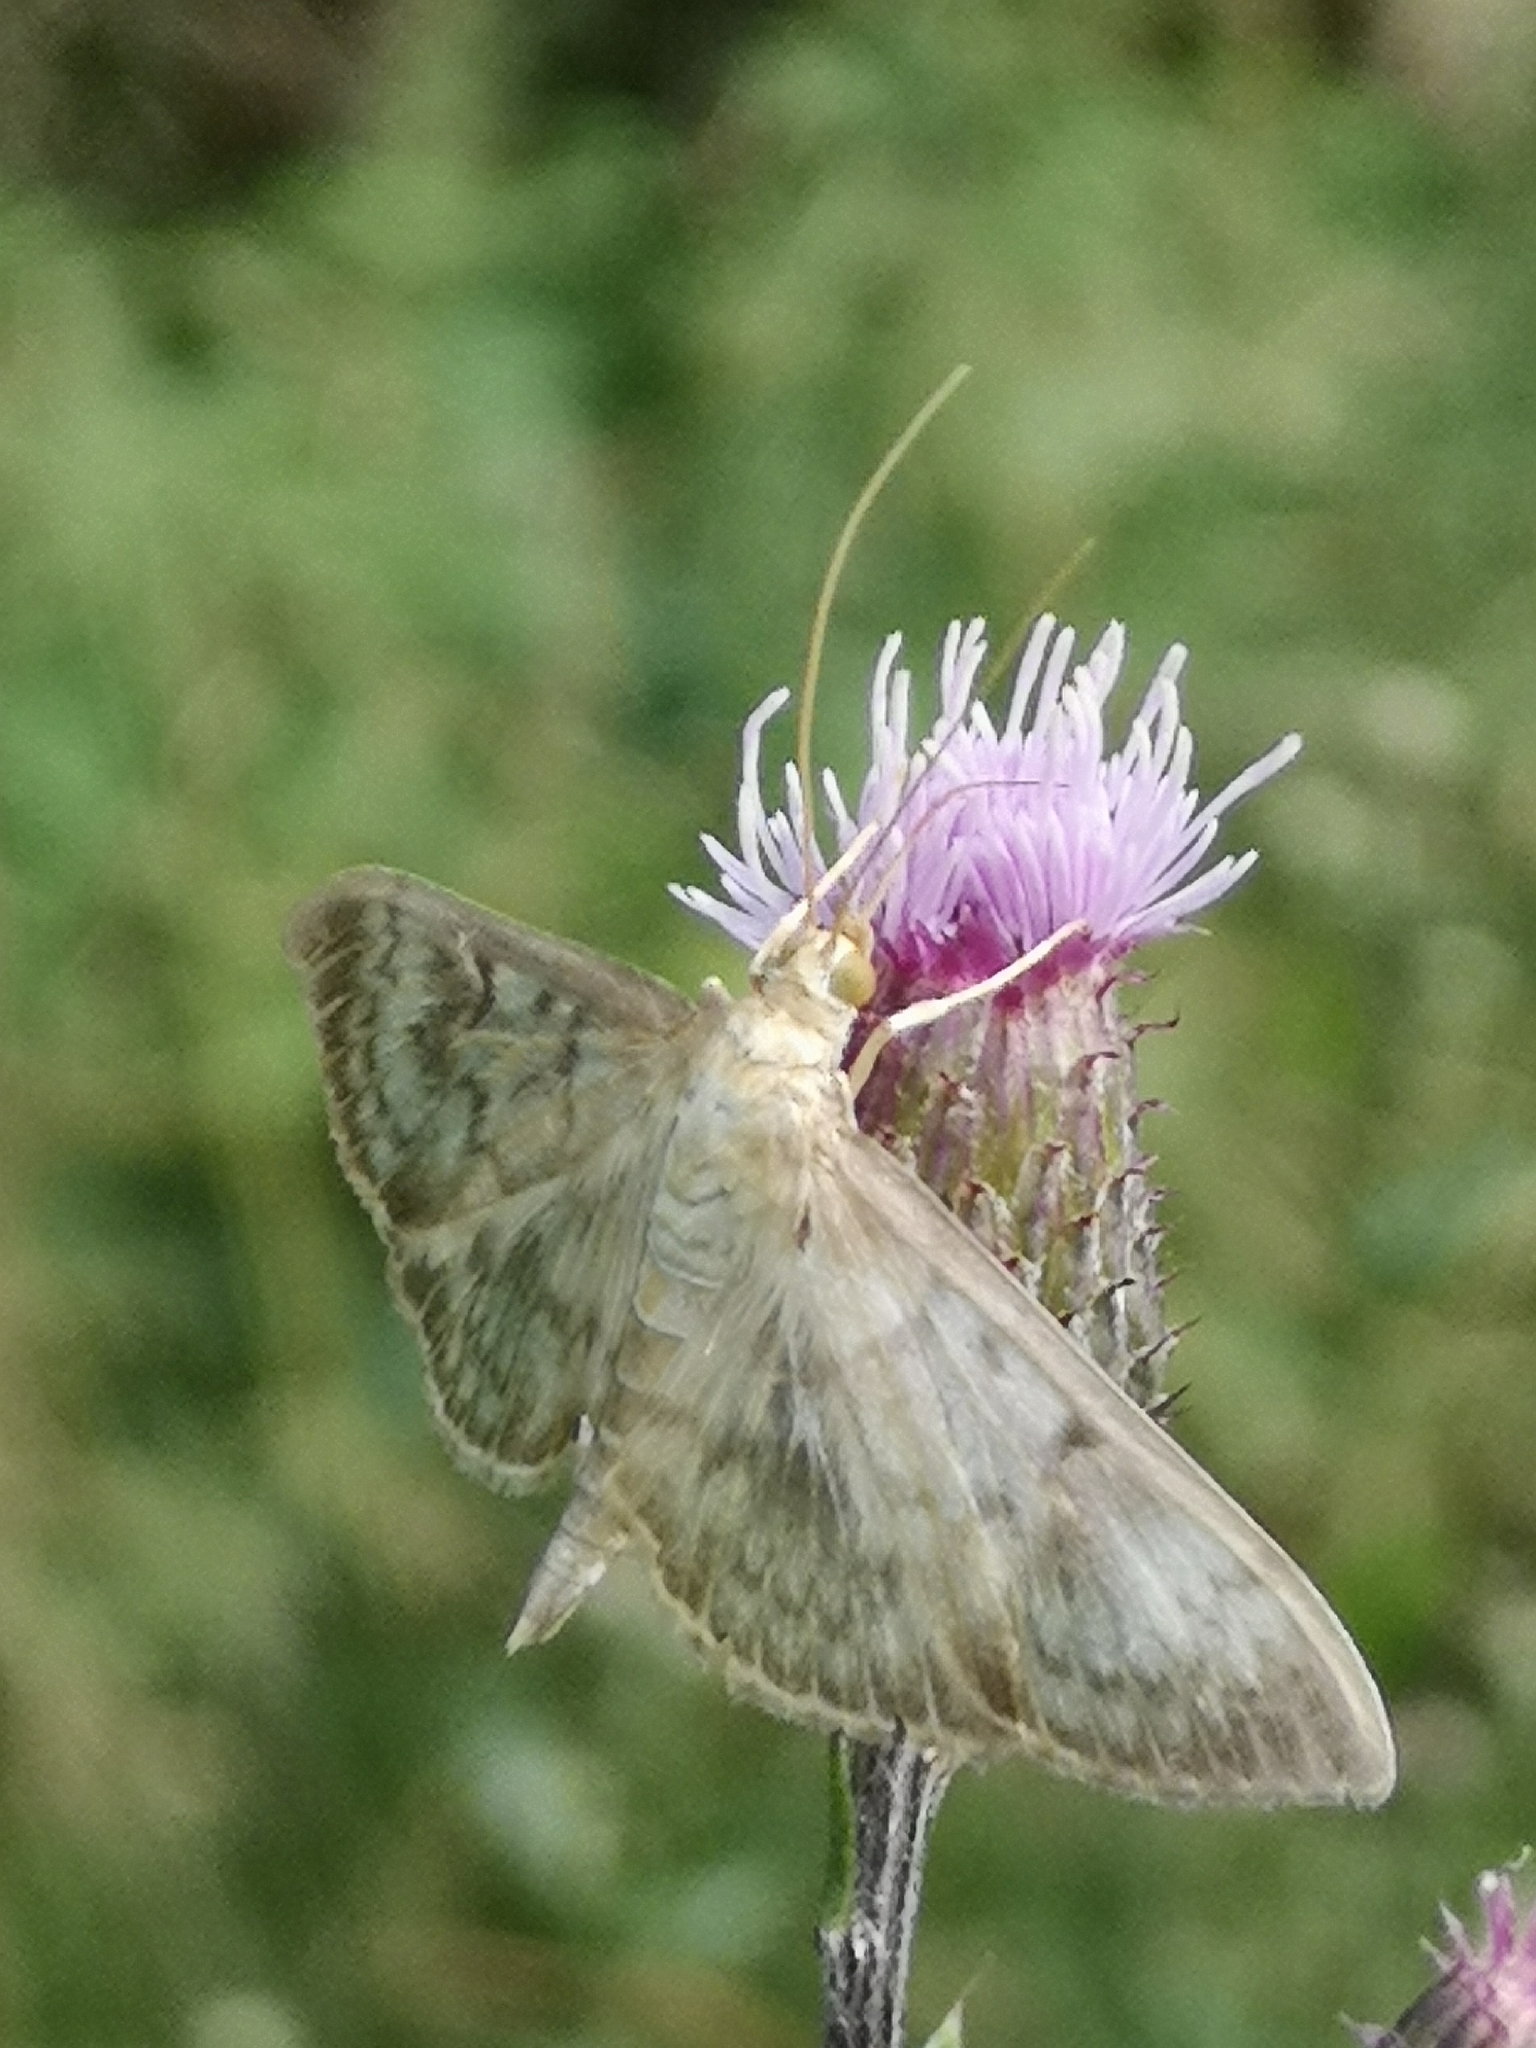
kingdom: Animalia
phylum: Arthropoda
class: Insecta
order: Lepidoptera
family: Crambidae
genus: Patania
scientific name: Patania ruralis
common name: Mother of pearl
